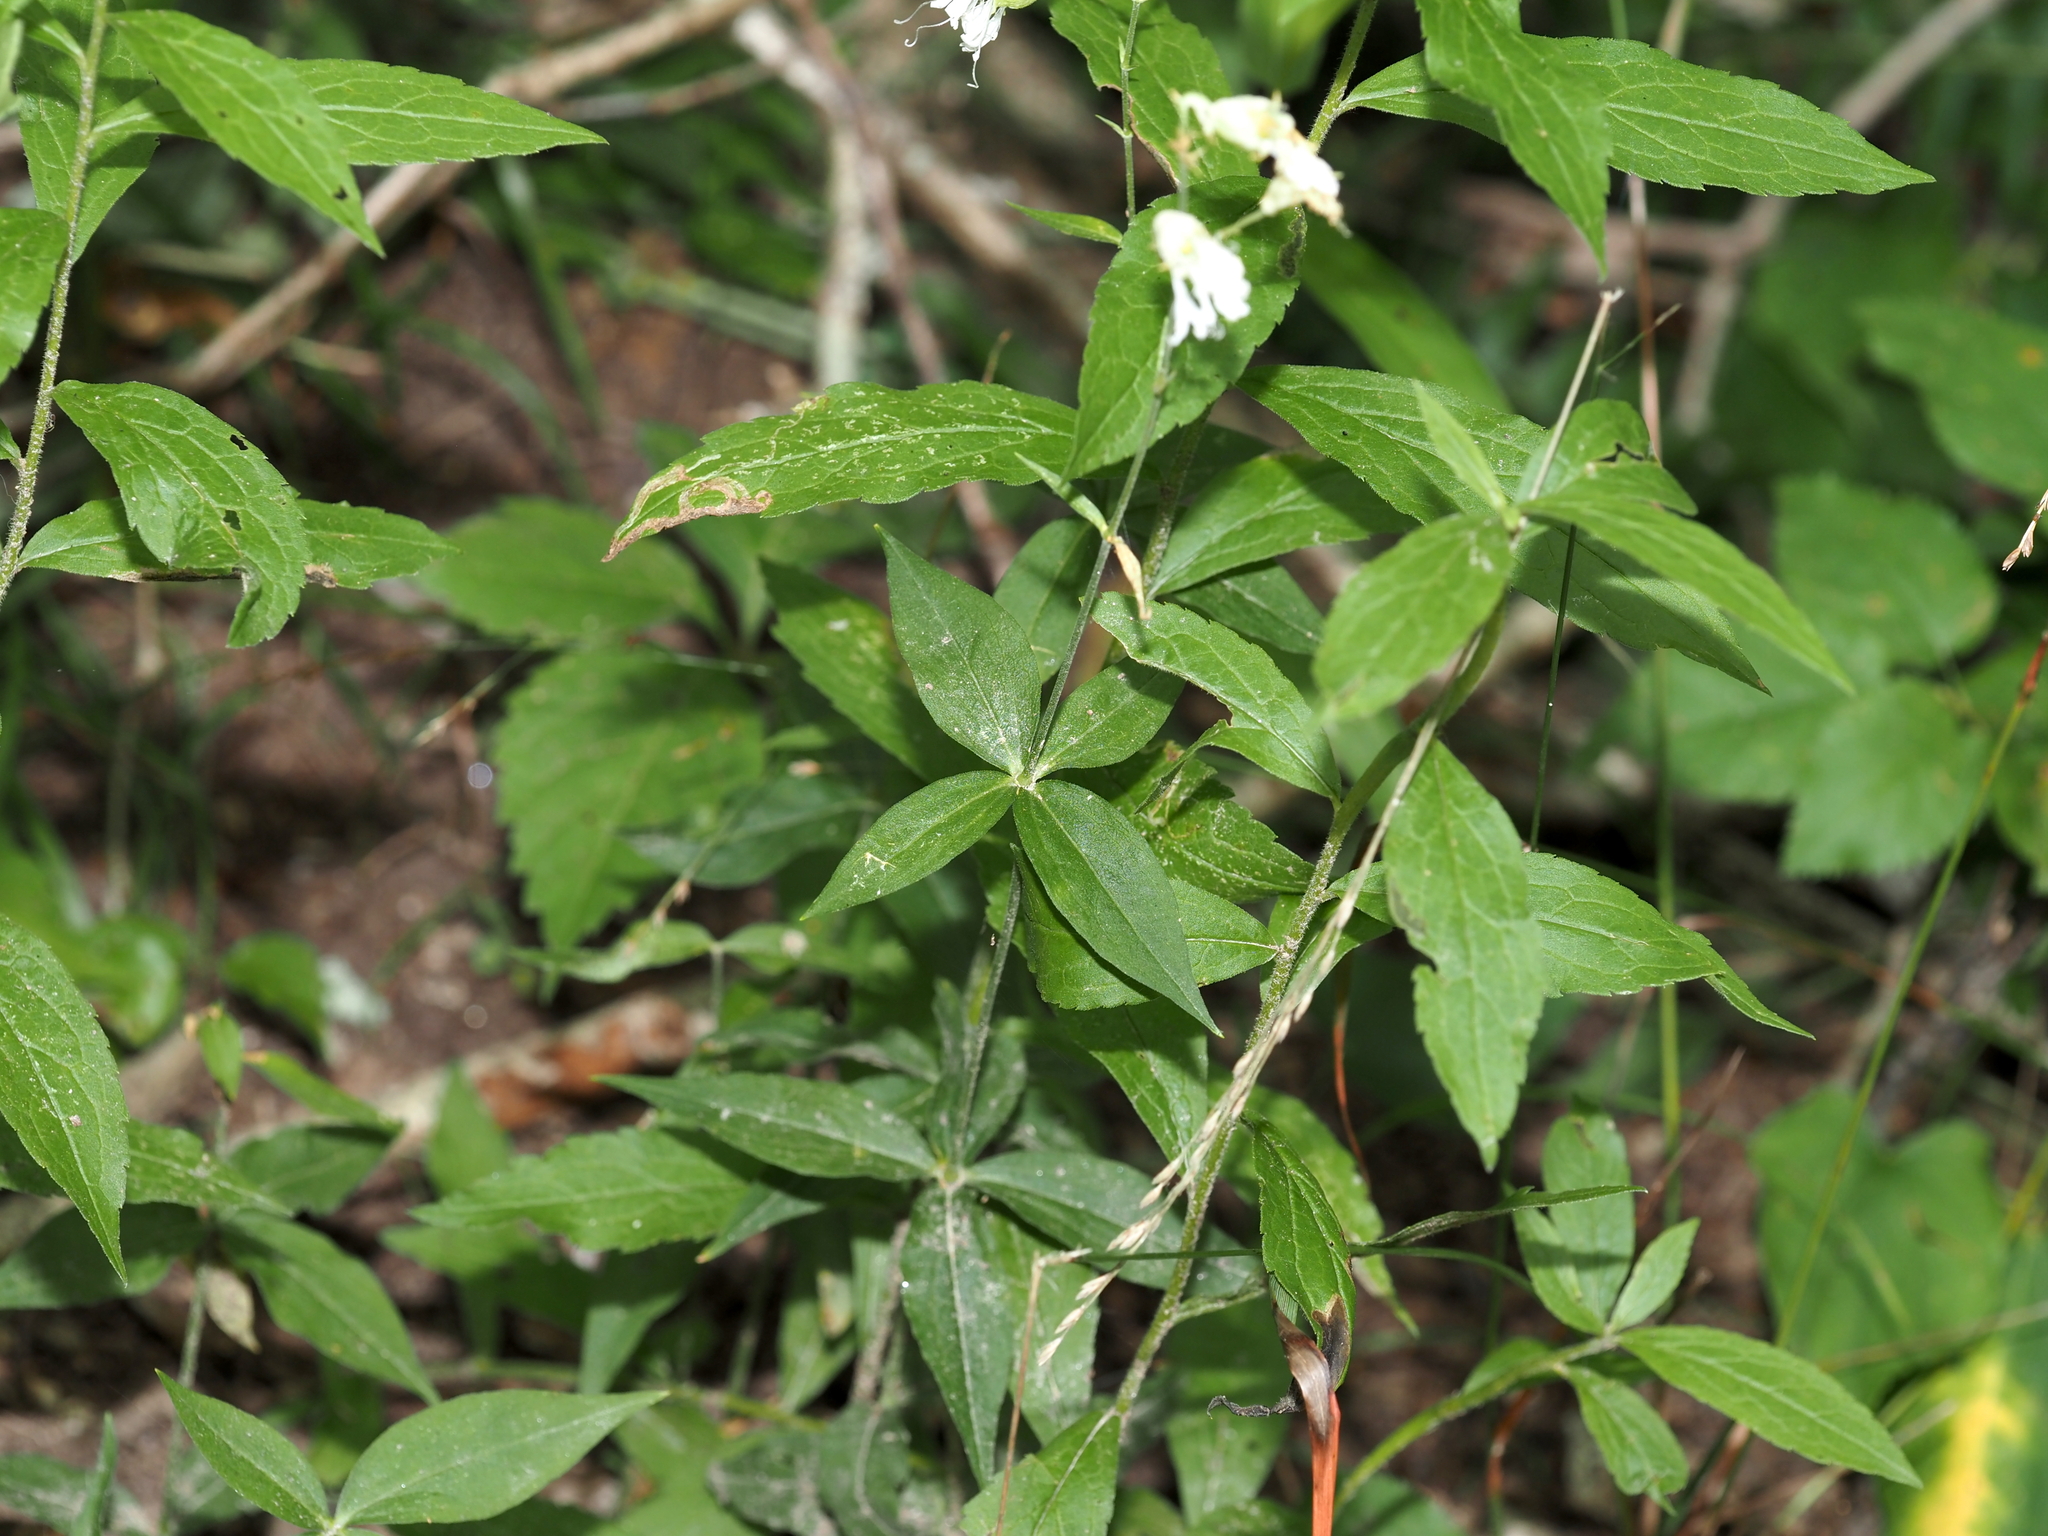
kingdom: Plantae
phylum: Tracheophyta
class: Magnoliopsida
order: Caryophyllales
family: Caryophyllaceae
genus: Silene
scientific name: Silene stellata
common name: Starry campion
